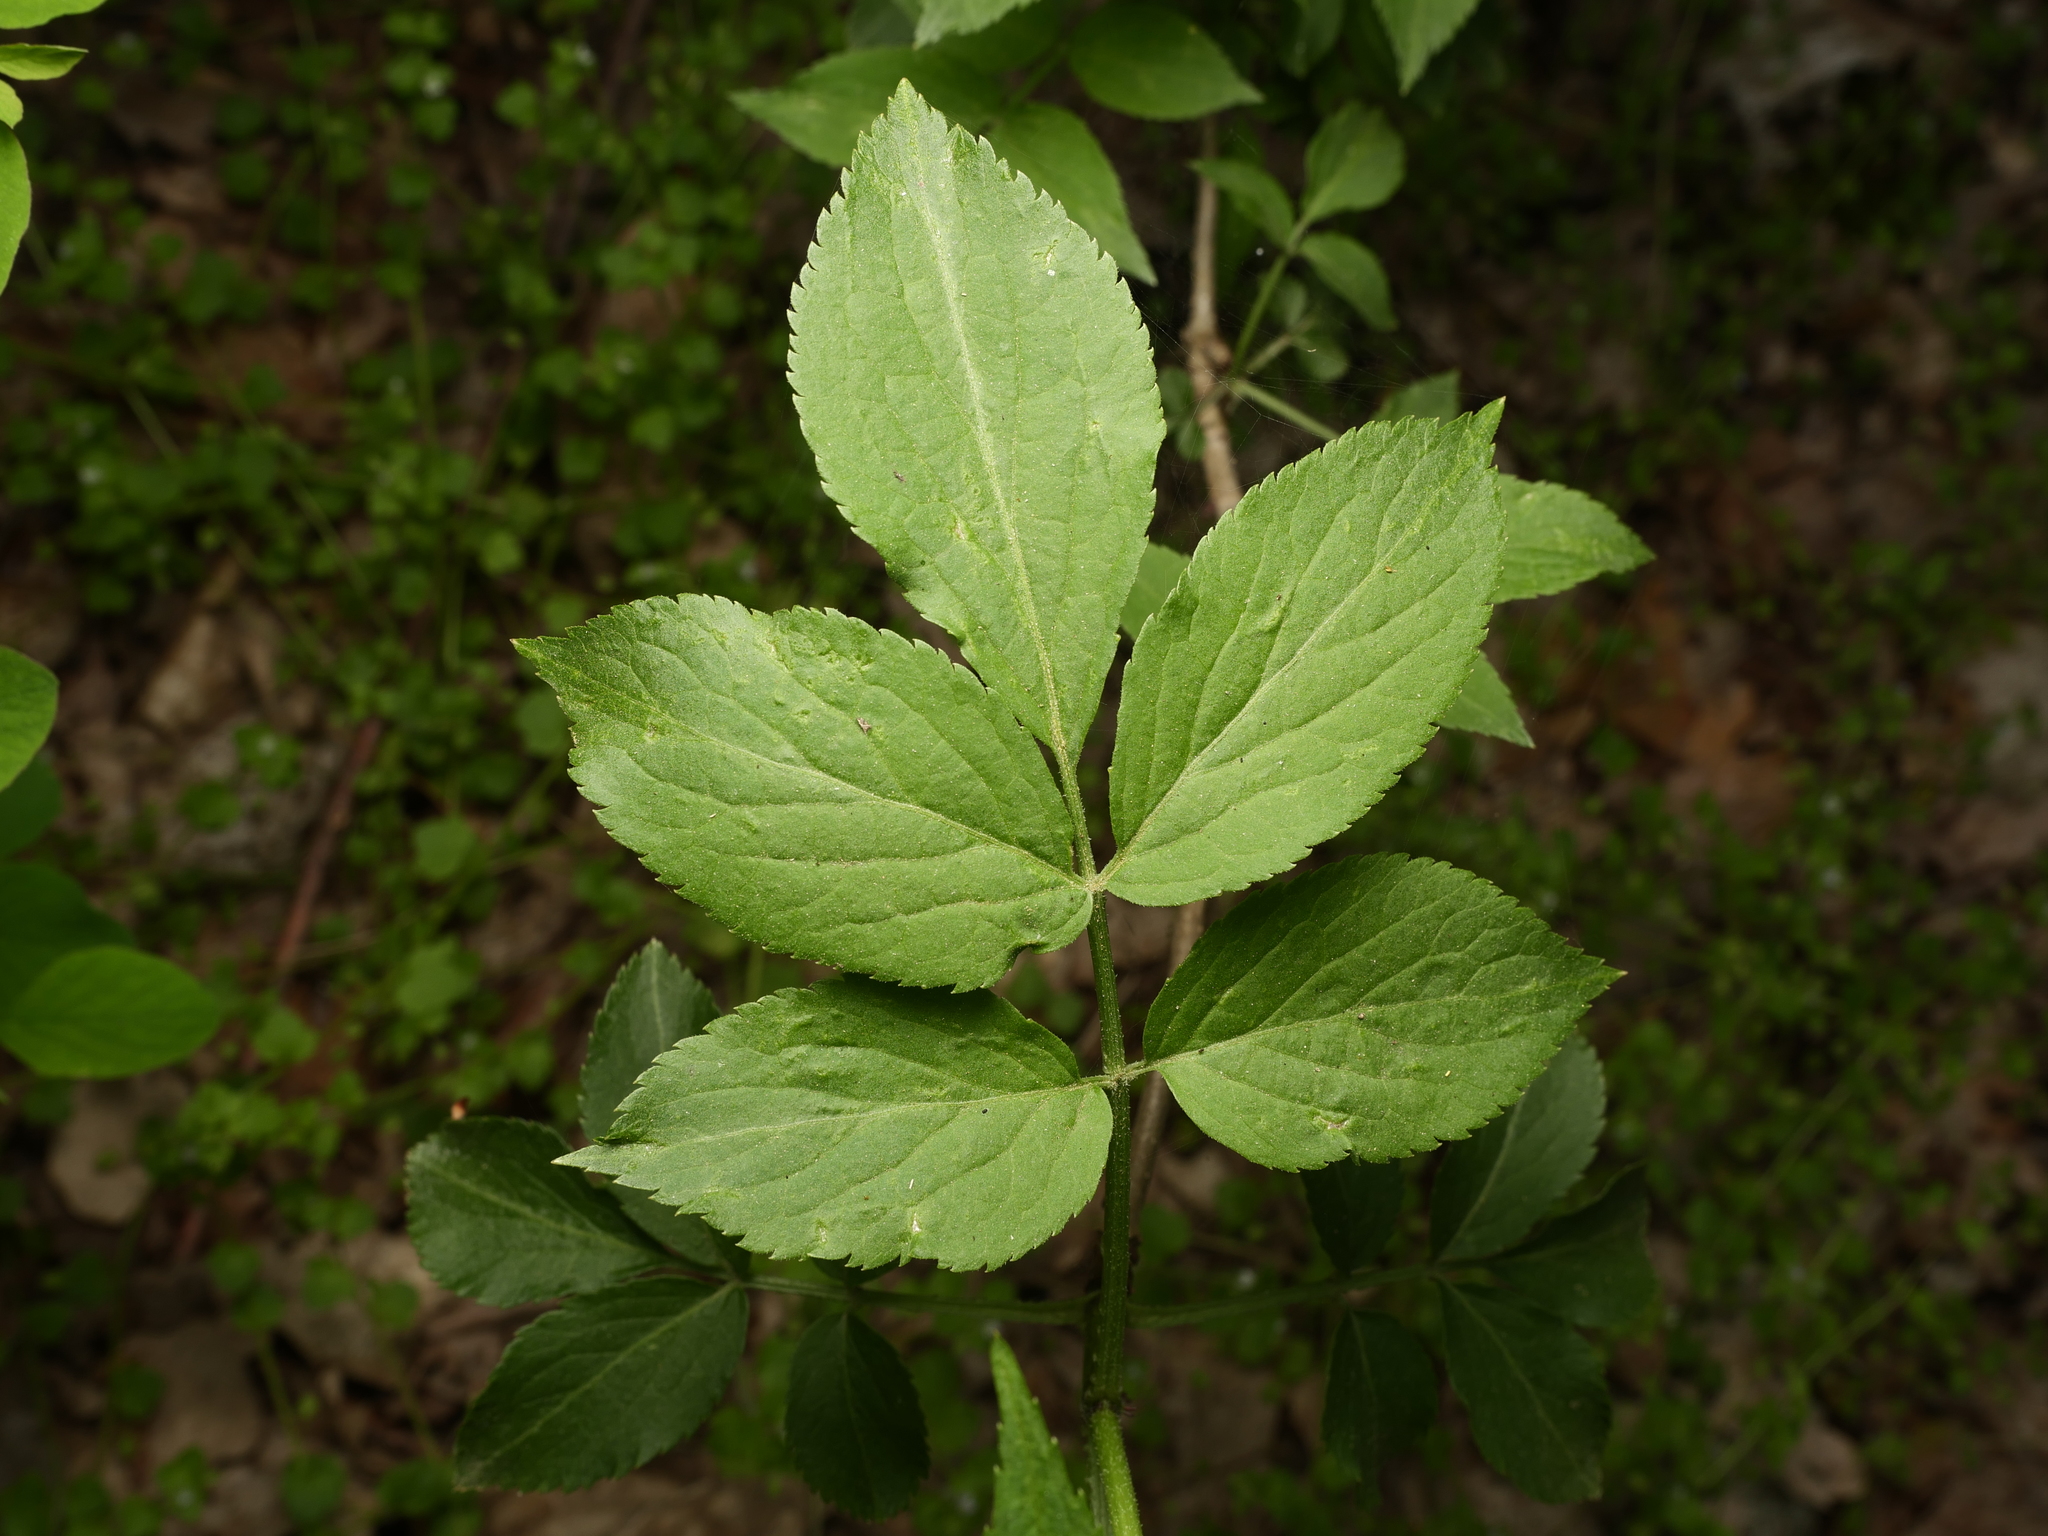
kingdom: Plantae
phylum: Tracheophyta
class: Magnoliopsida
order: Dipsacales
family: Viburnaceae
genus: Sambucus
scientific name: Sambucus nigra
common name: Elder
